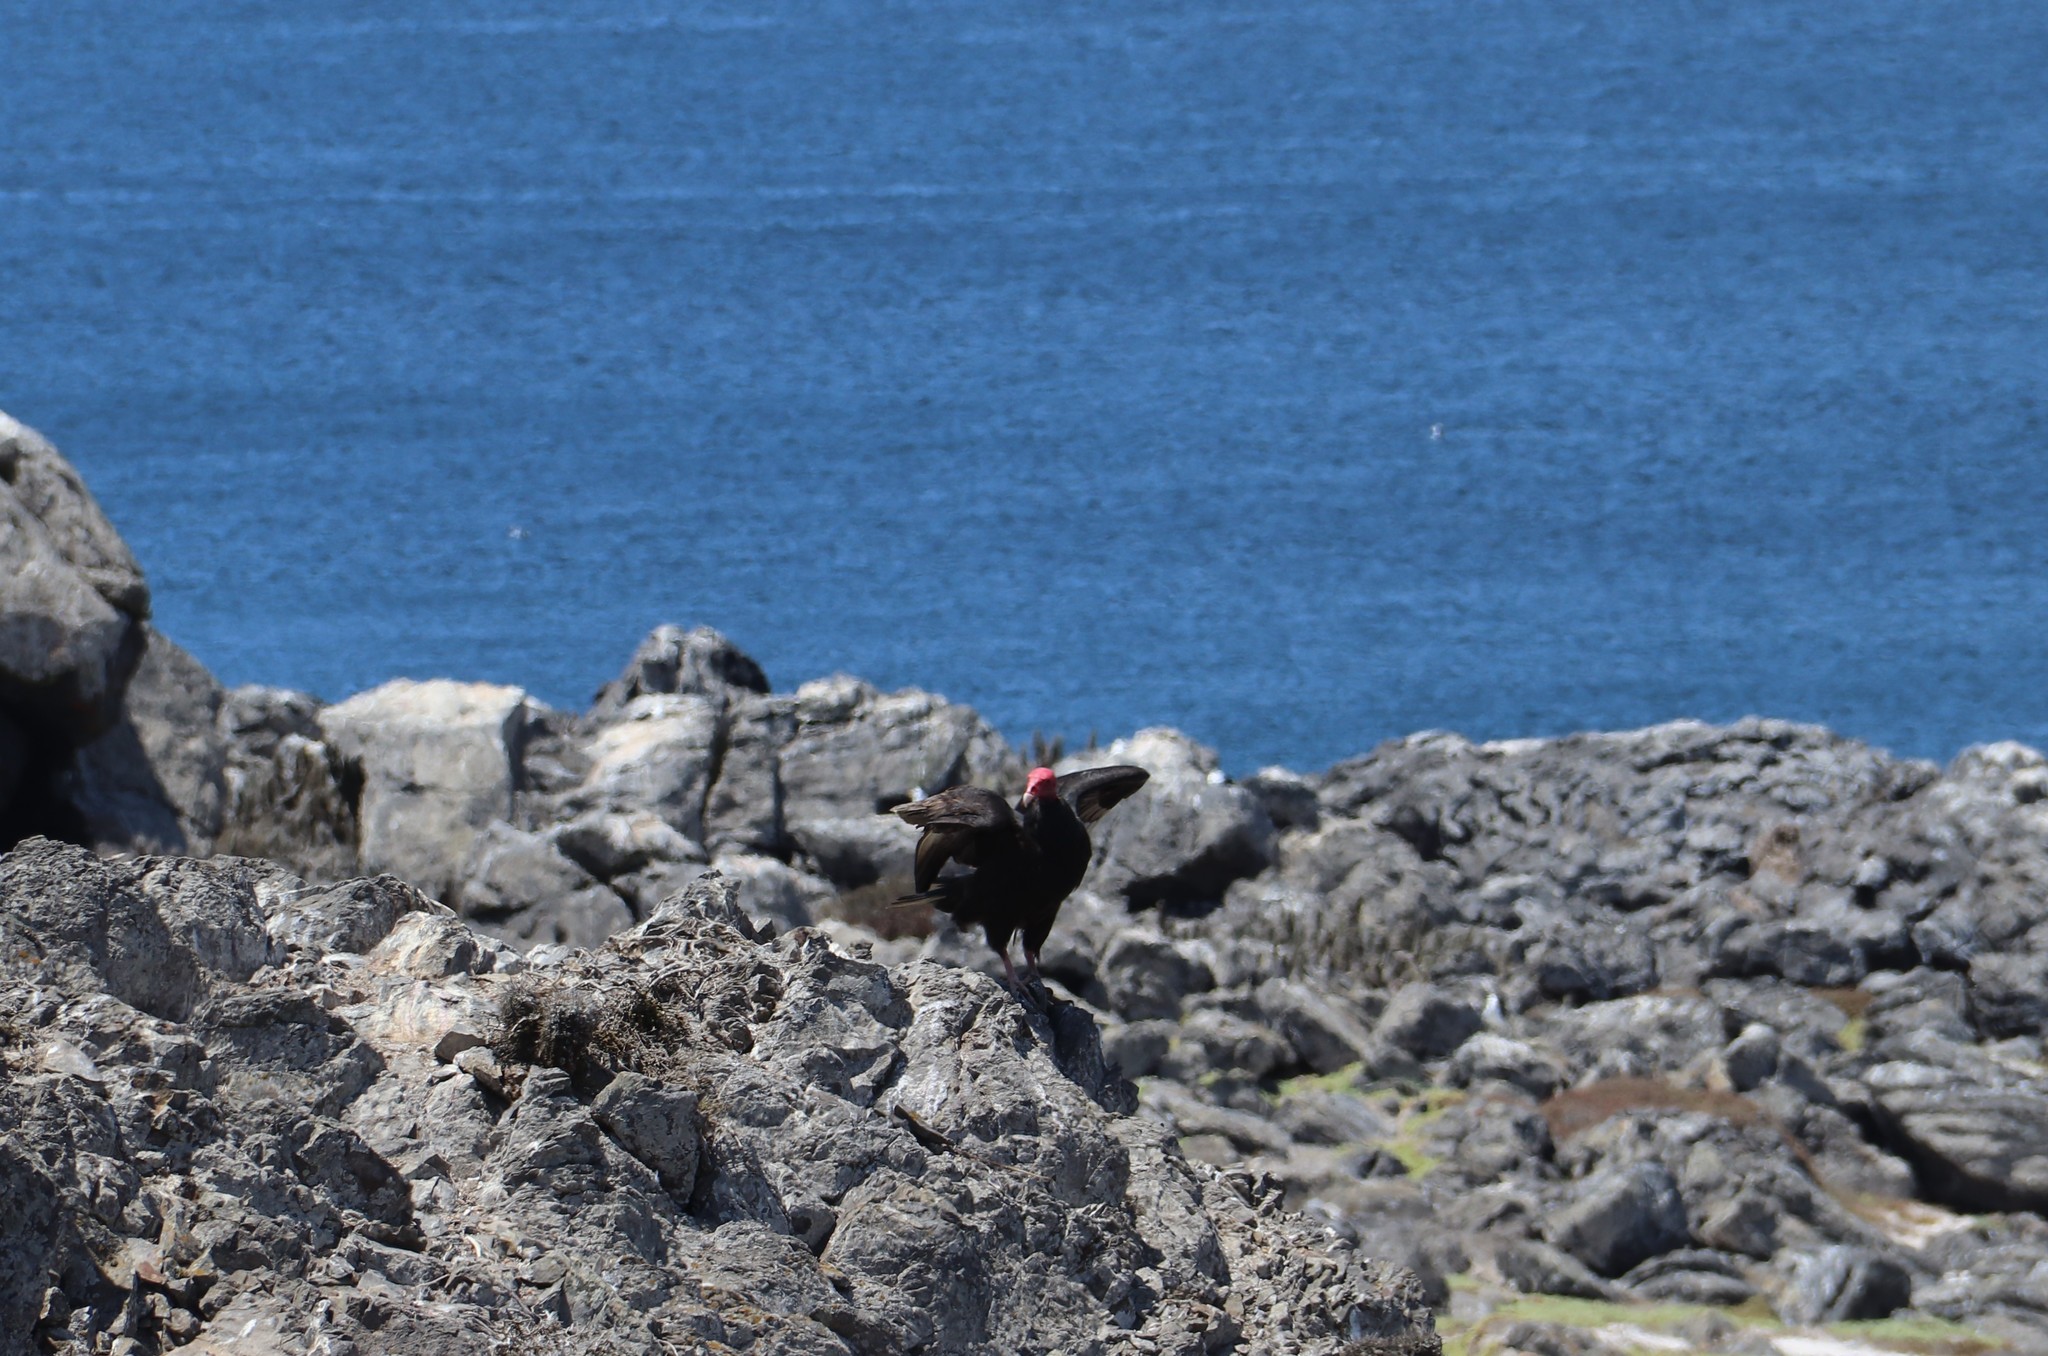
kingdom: Animalia
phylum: Chordata
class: Aves
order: Accipitriformes
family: Cathartidae
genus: Cathartes
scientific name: Cathartes aura
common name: Turkey vulture
